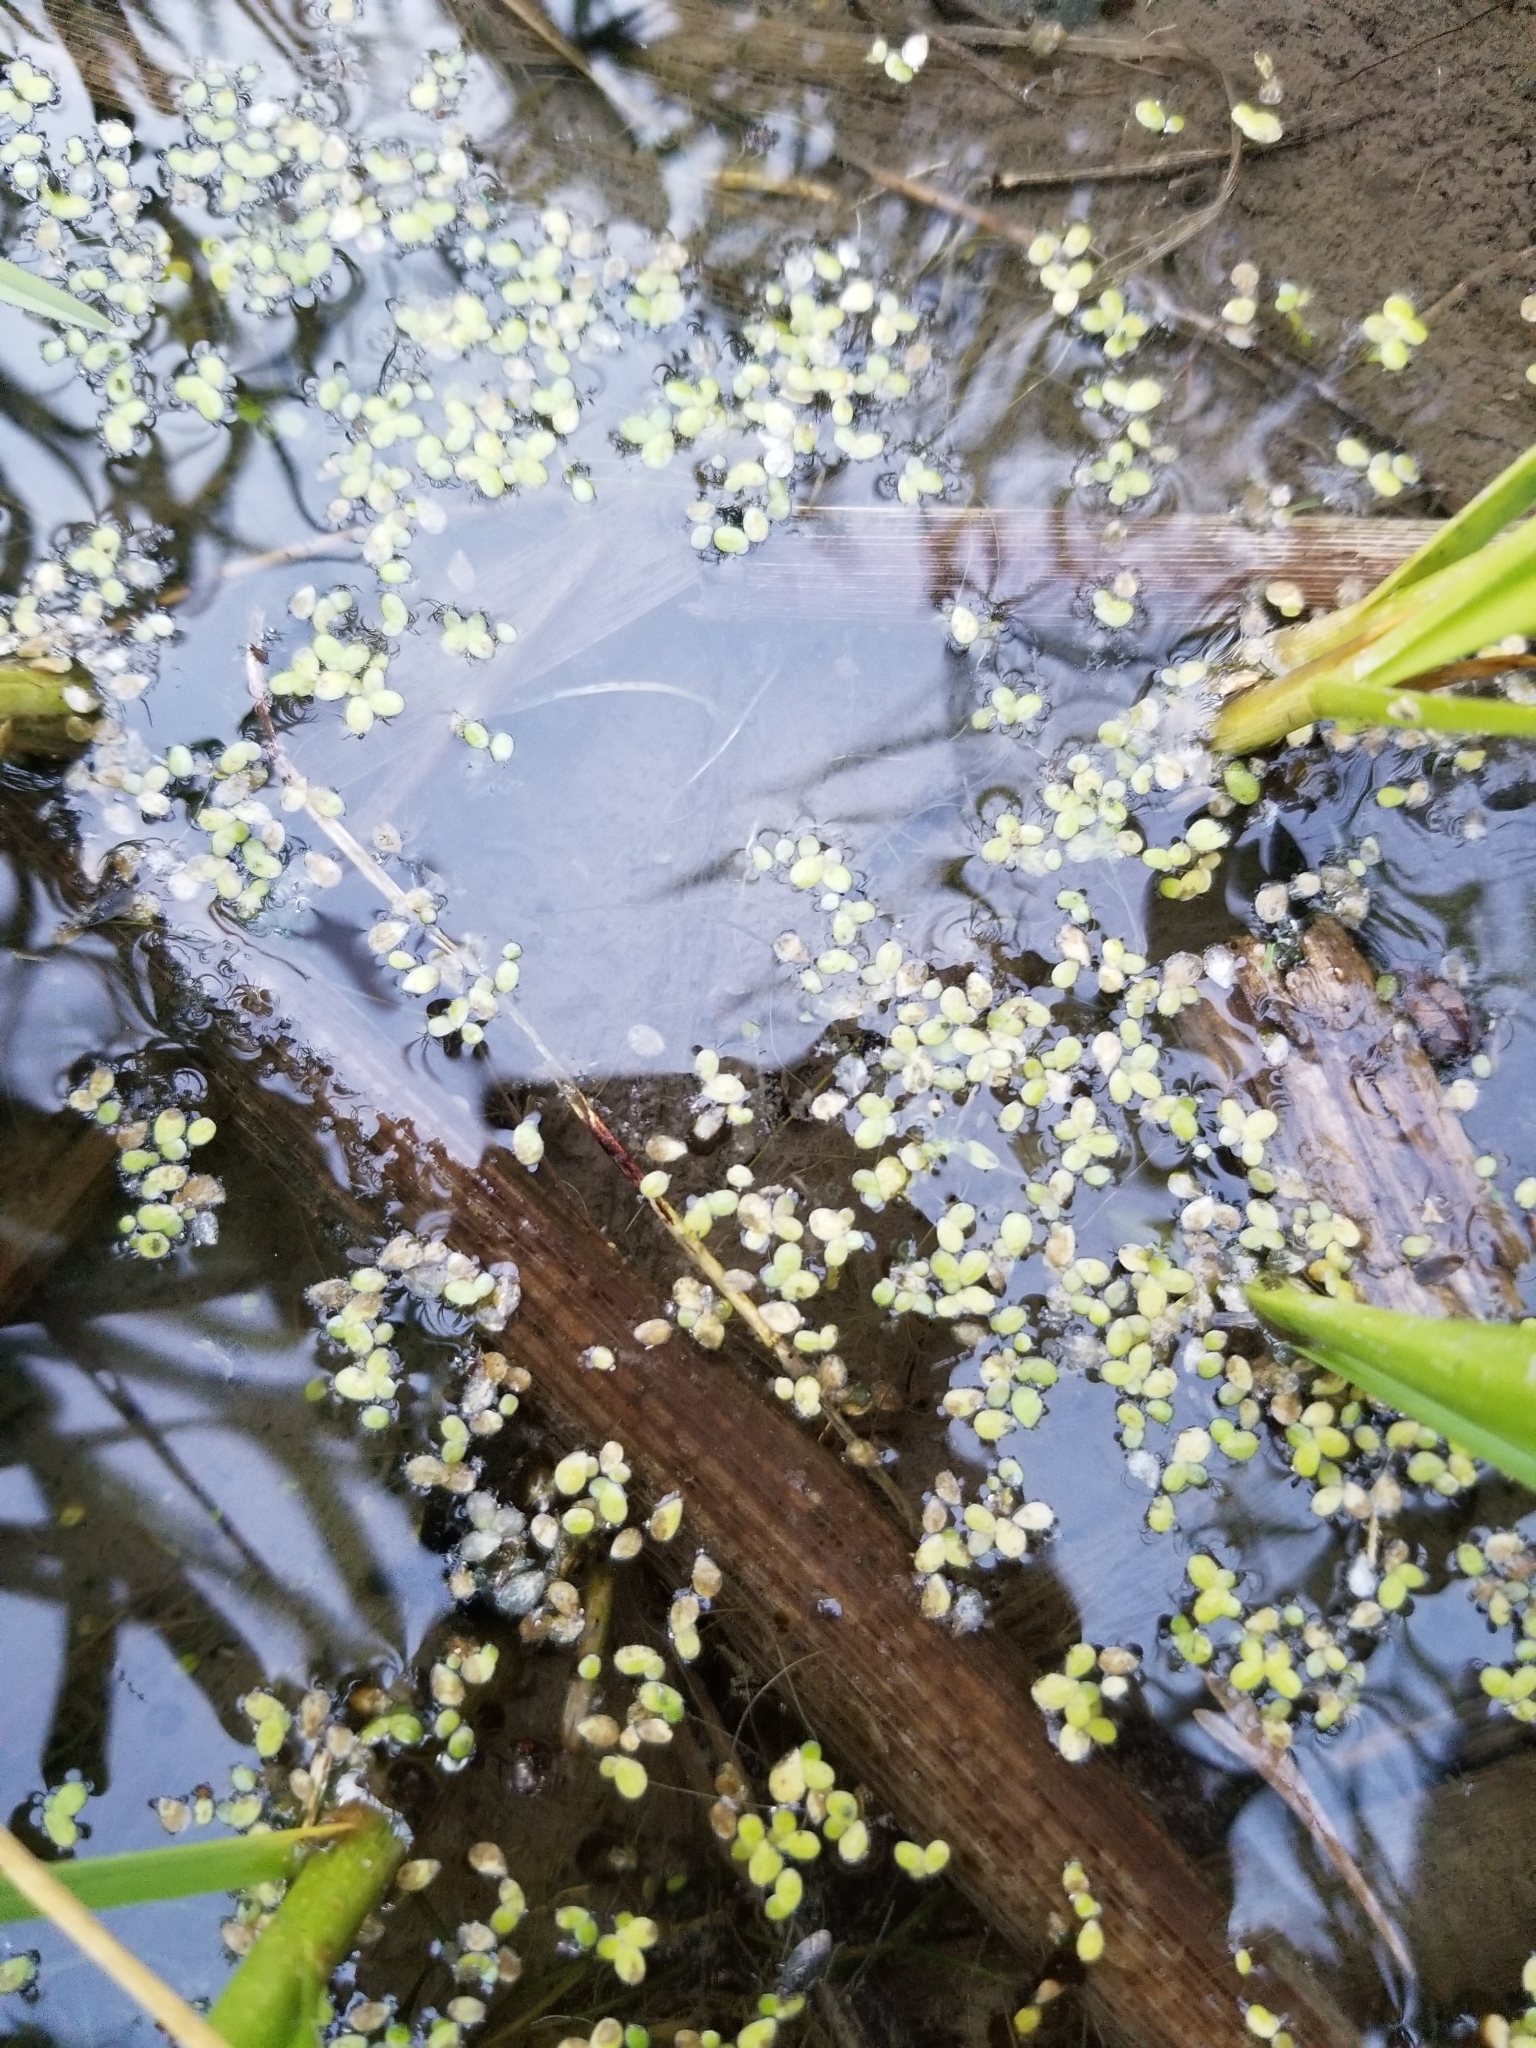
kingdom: Plantae
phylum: Tracheophyta
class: Liliopsida
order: Alismatales
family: Araceae
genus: Lemna
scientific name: Lemna minor
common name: Common duckweed
